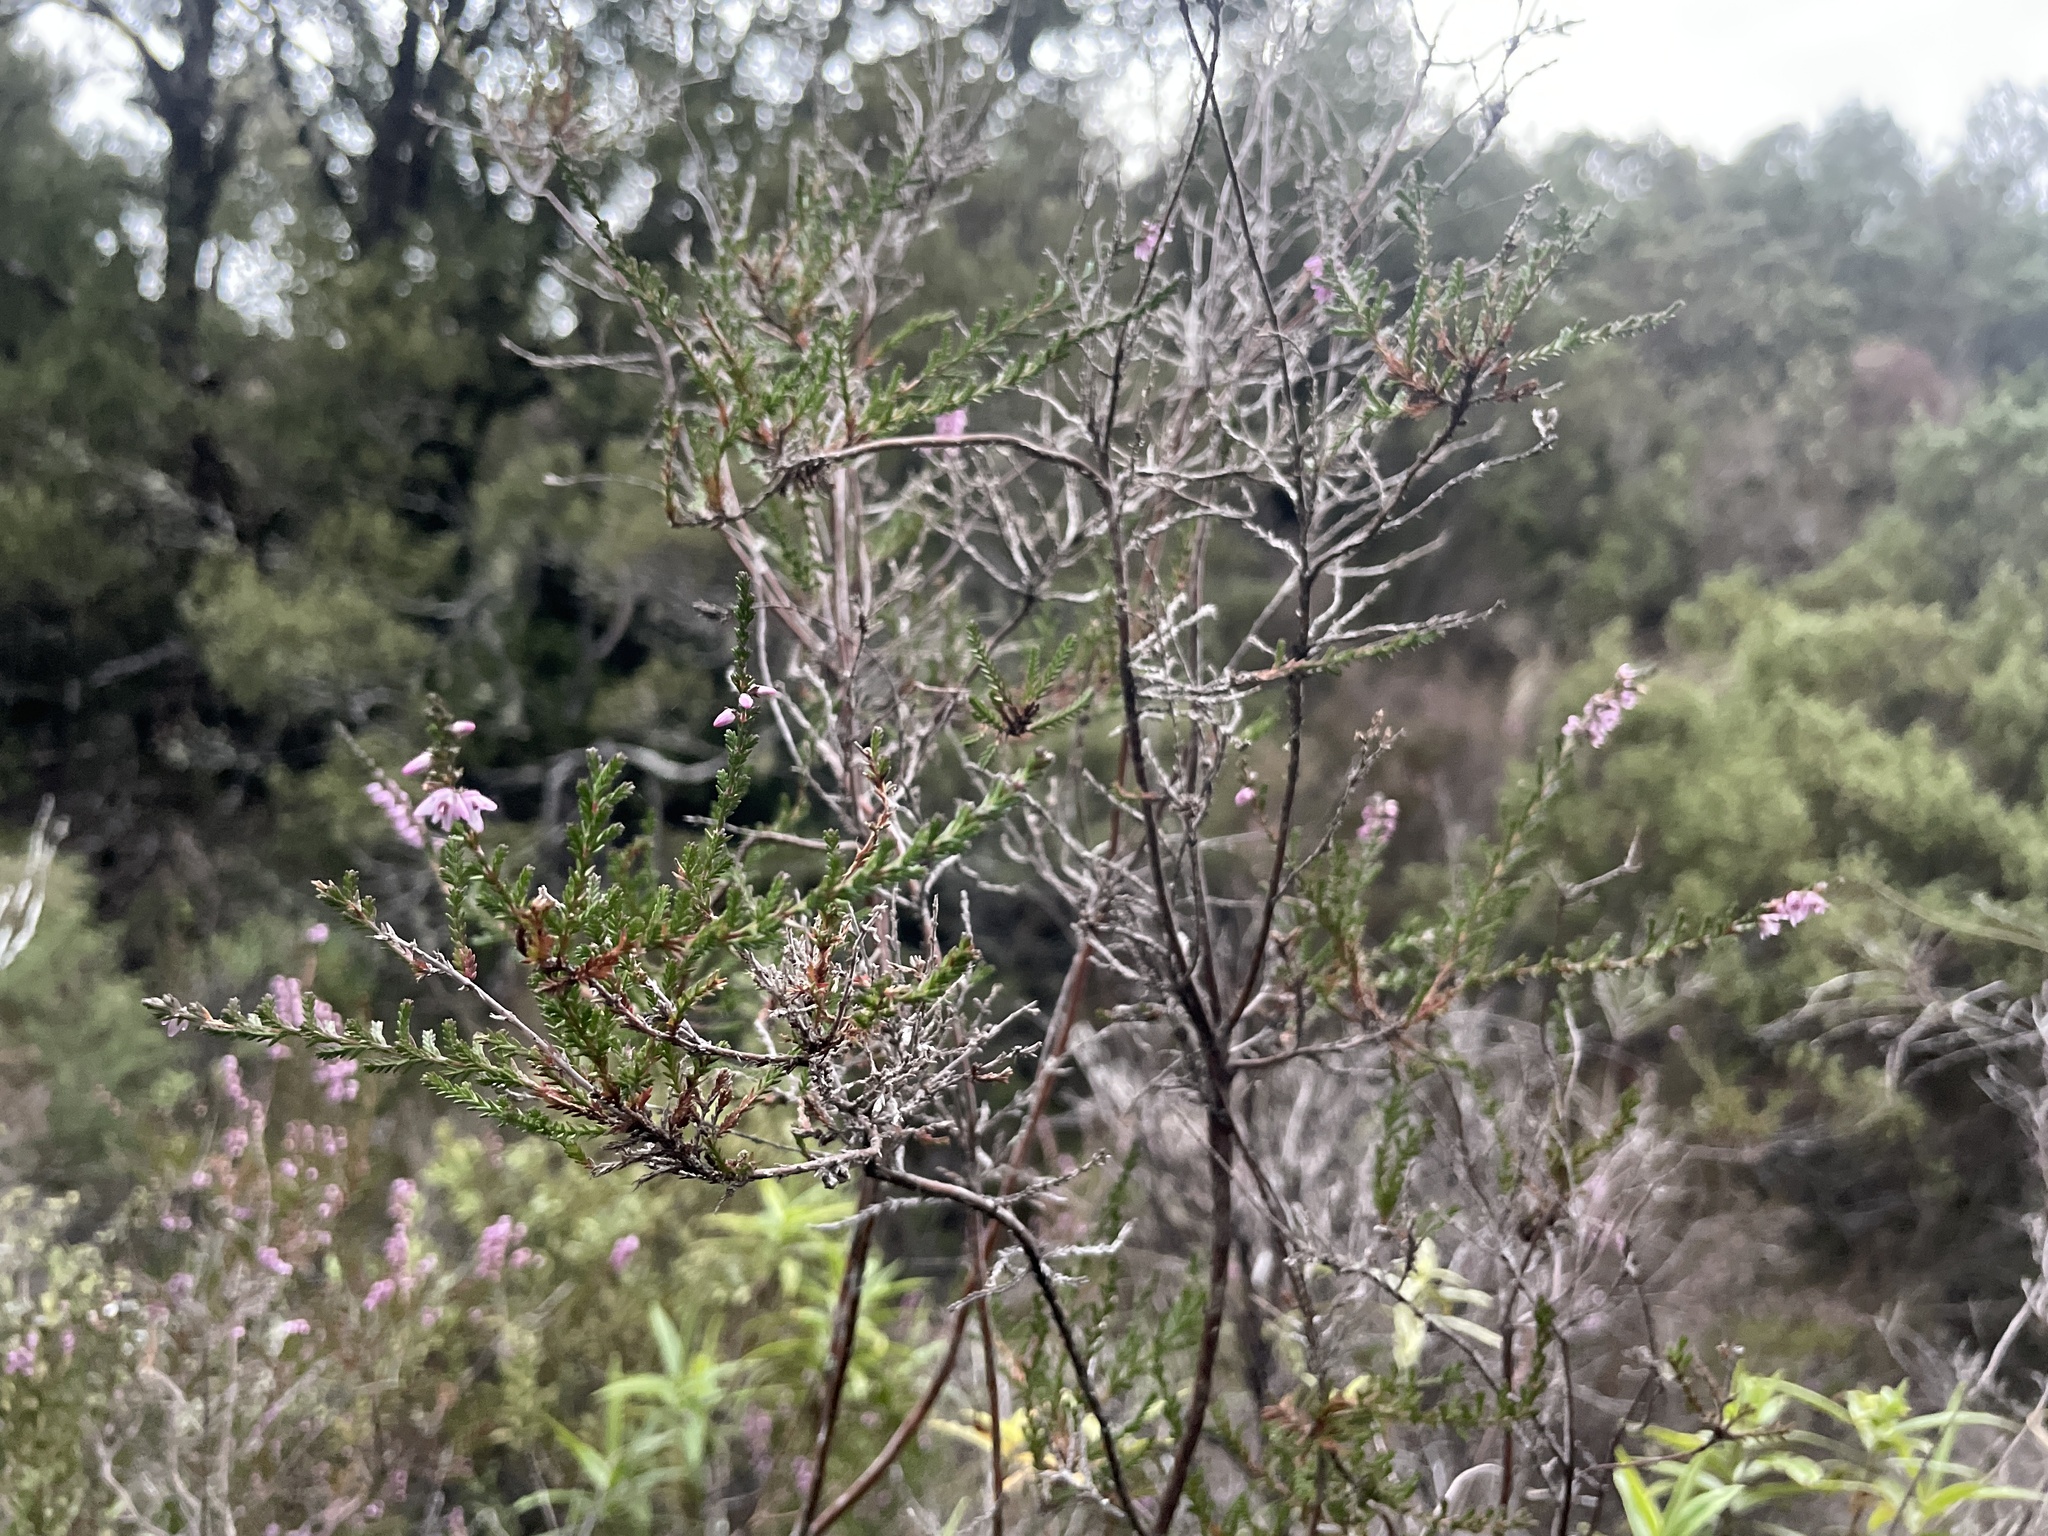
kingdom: Plantae
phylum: Tracheophyta
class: Magnoliopsida
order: Ericales
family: Ericaceae
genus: Calluna
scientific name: Calluna vulgaris
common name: Heather
